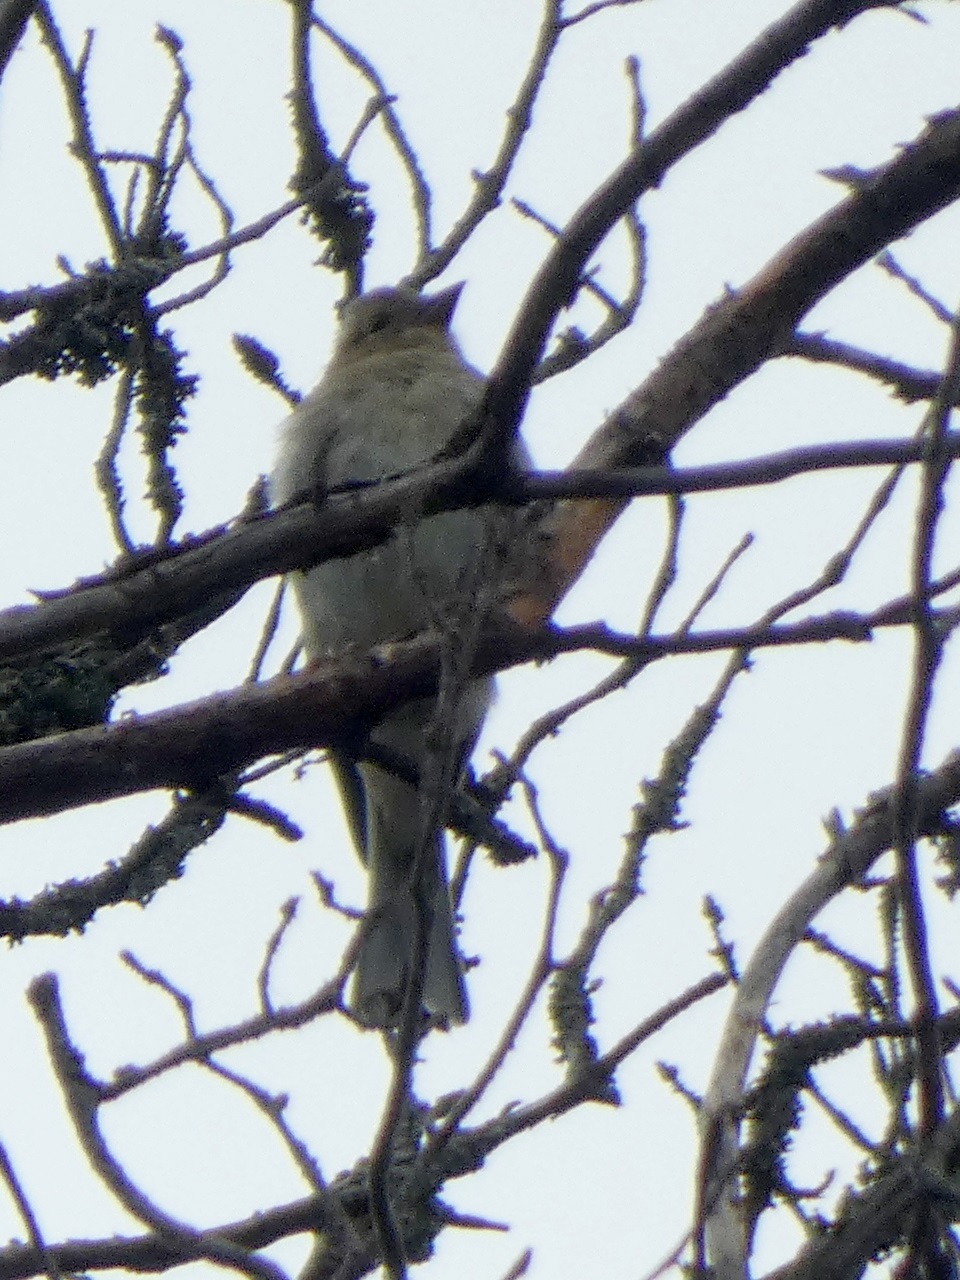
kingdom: Animalia
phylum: Chordata
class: Aves
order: Passeriformes
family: Fringillidae
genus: Fringilla
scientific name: Fringilla coelebs
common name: Common chaffinch
